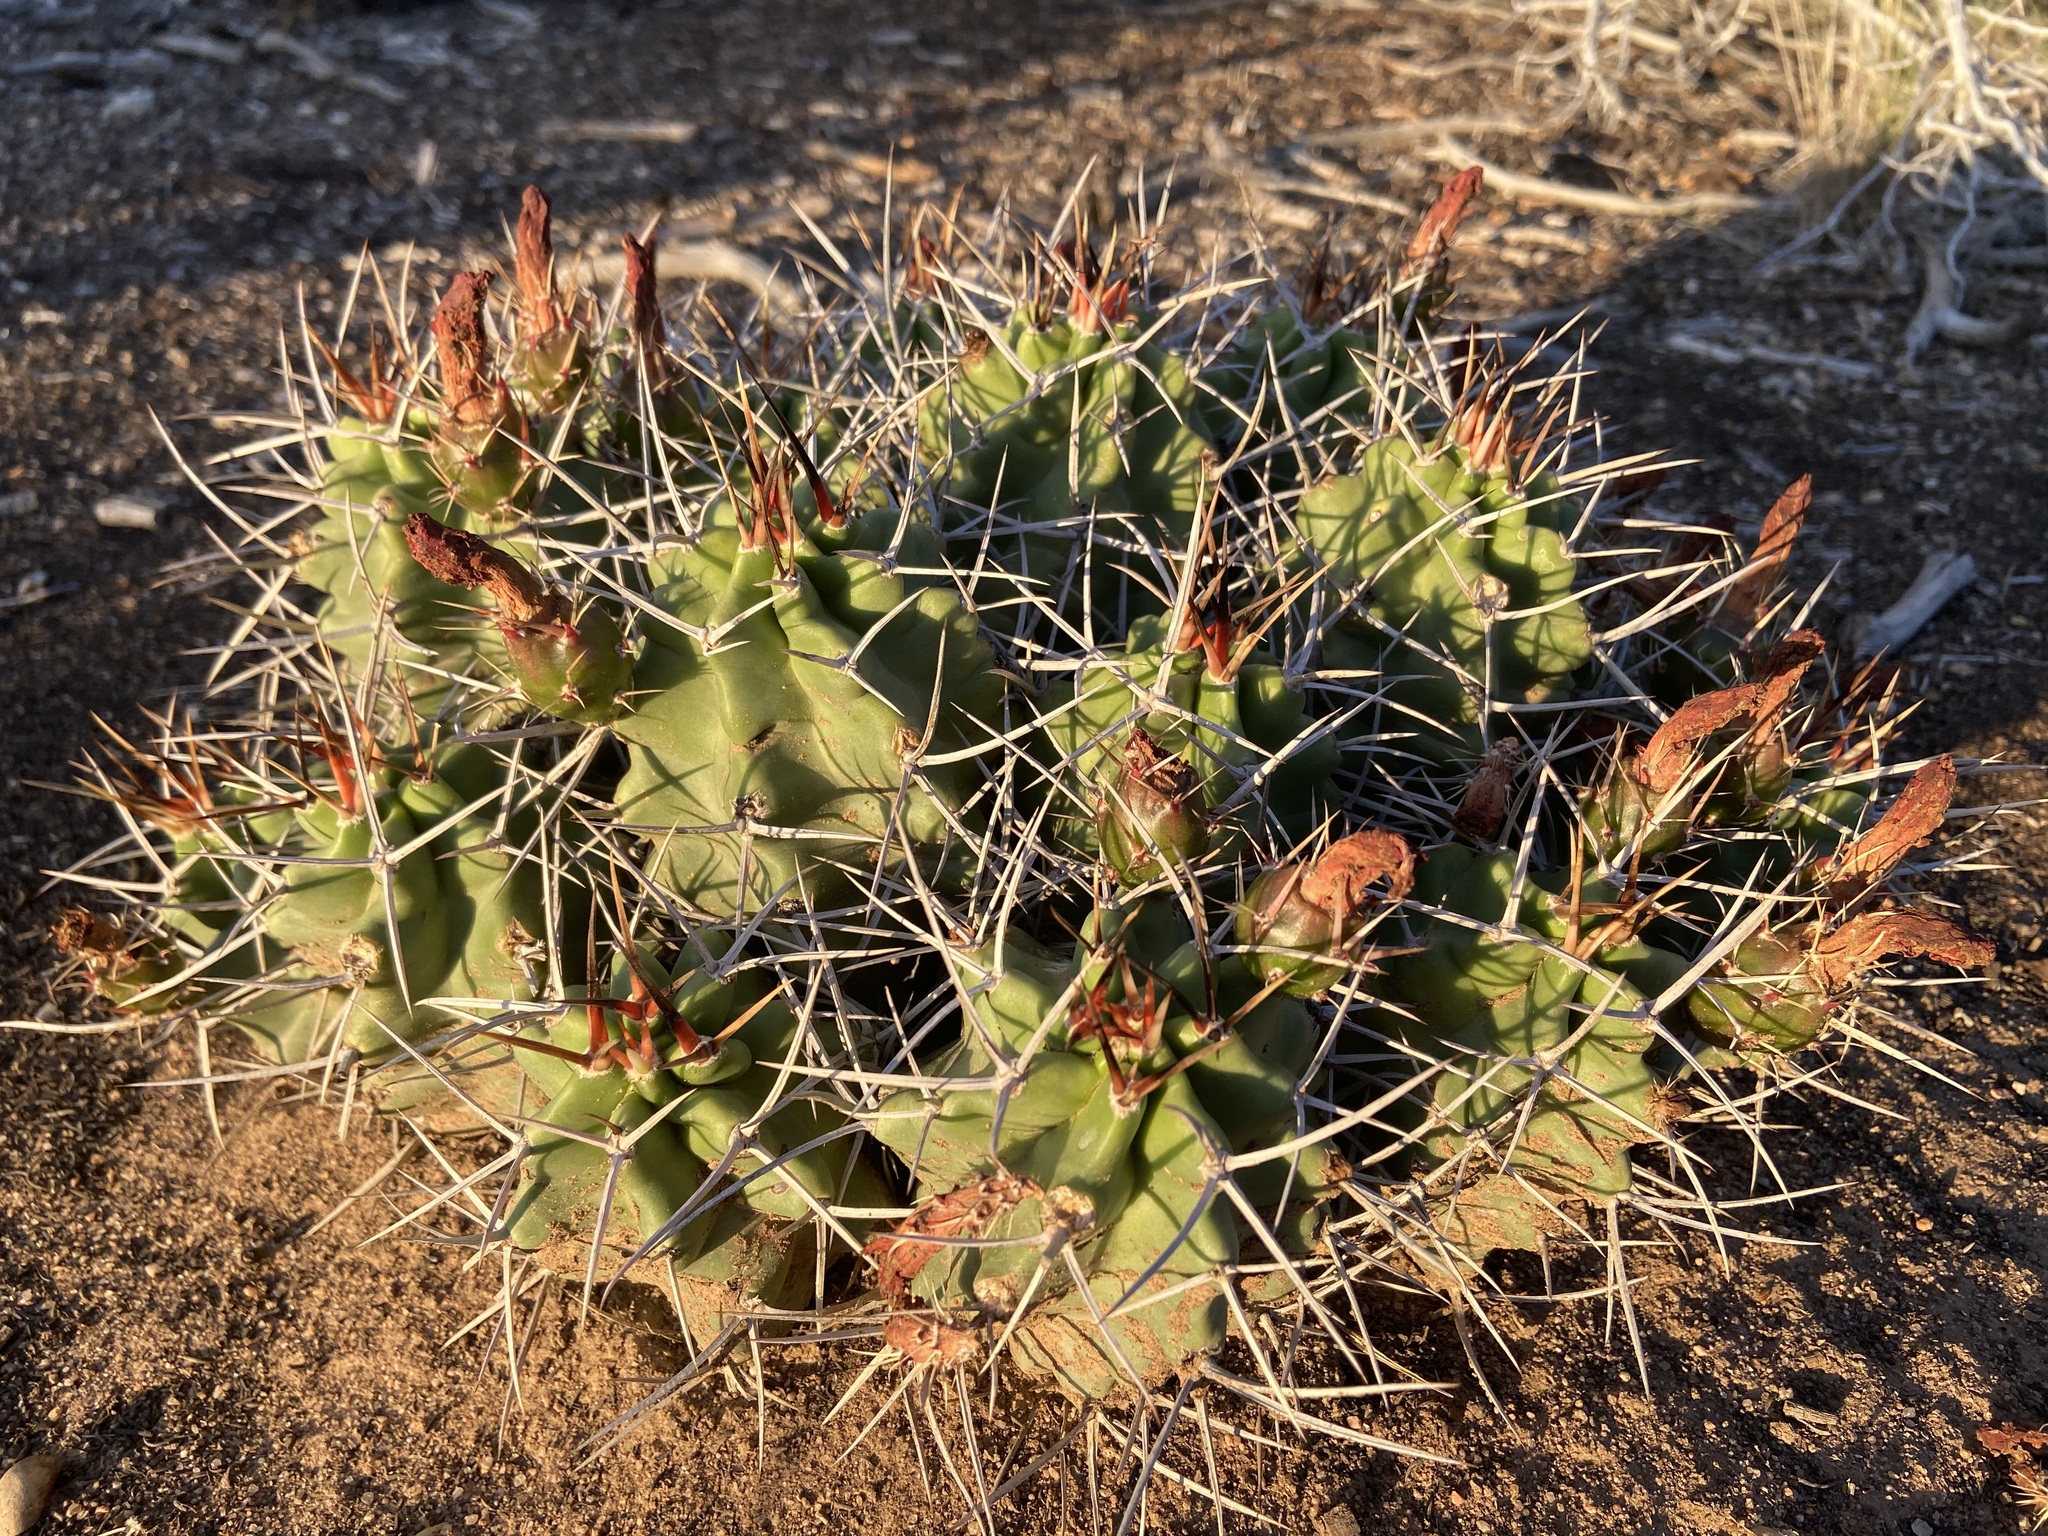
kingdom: Plantae
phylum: Tracheophyta
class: Magnoliopsida
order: Caryophyllales
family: Cactaceae
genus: Echinocereus
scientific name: Echinocereus triglochidiatus
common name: Claretcup hedgehog
